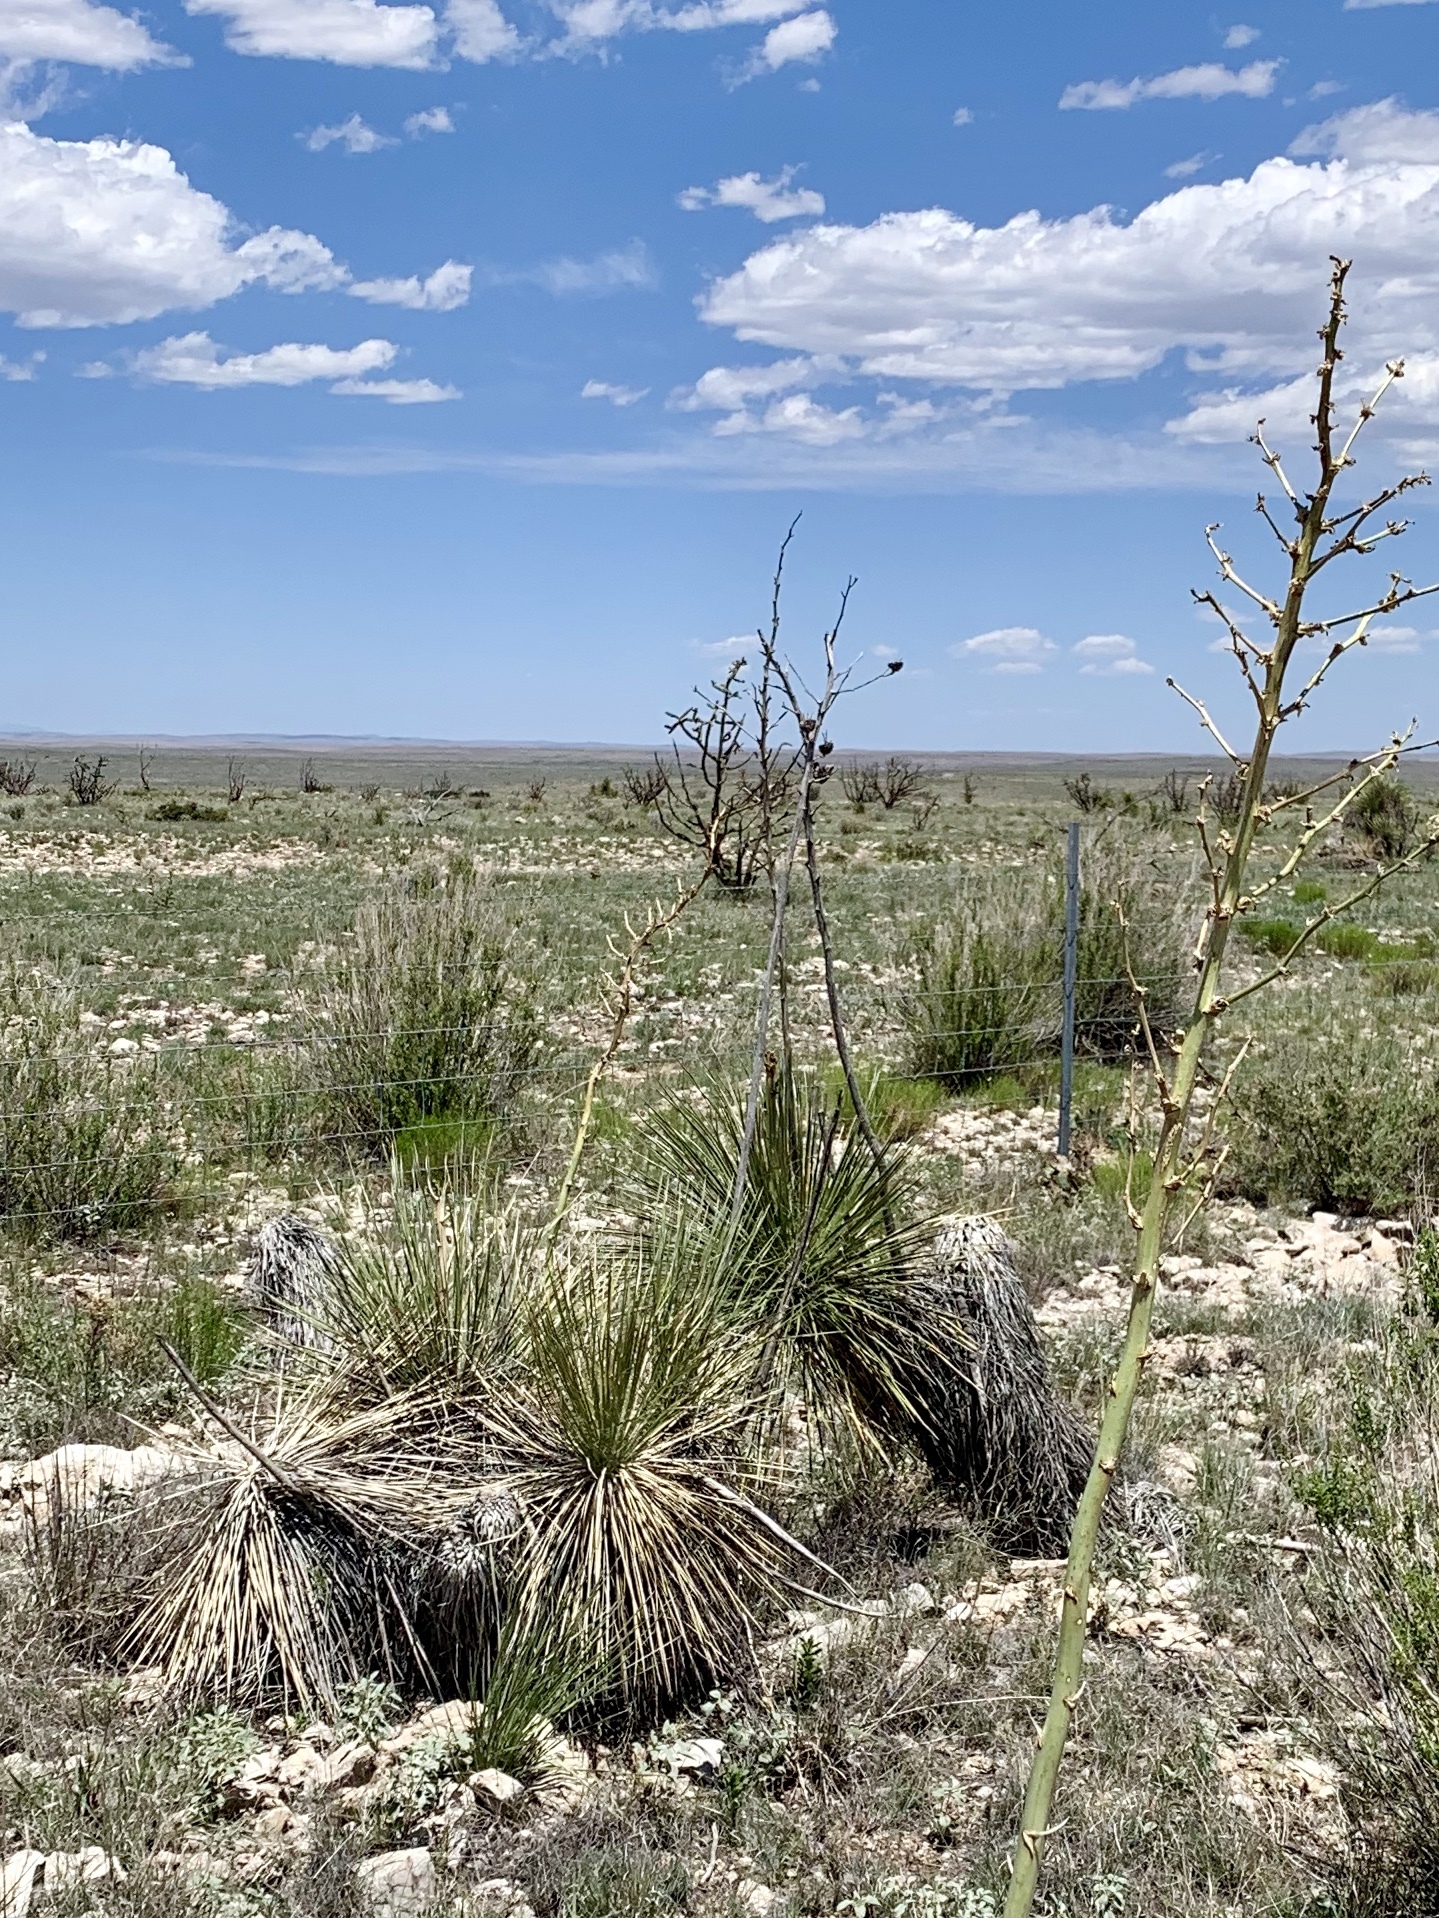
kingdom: Plantae
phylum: Tracheophyta
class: Liliopsida
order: Asparagales
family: Asparagaceae
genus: Yucca
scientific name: Yucca elata
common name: Palmella
